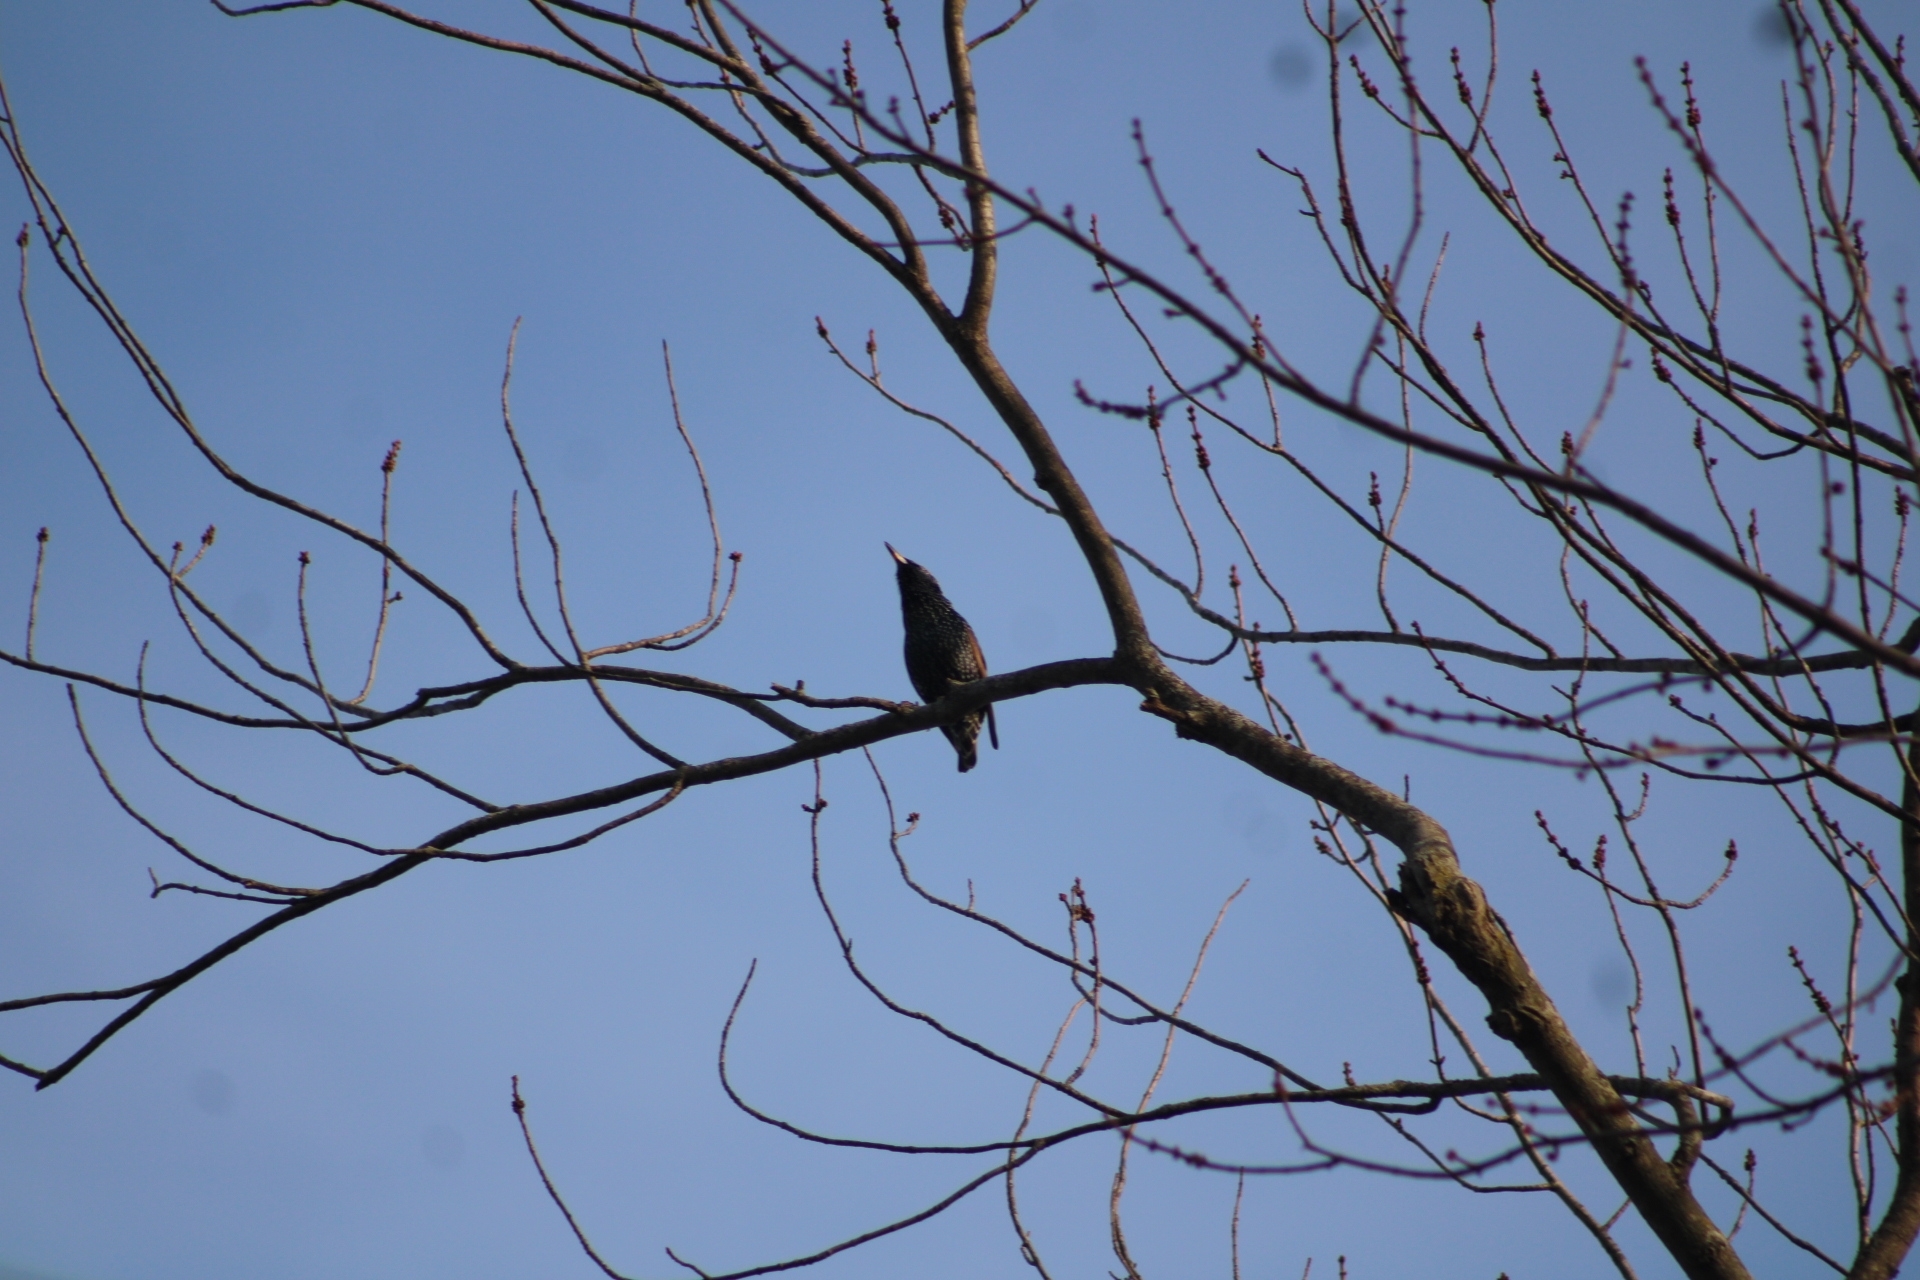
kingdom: Animalia
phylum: Chordata
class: Aves
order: Passeriformes
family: Sturnidae
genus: Sturnus
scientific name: Sturnus vulgaris
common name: Common starling
